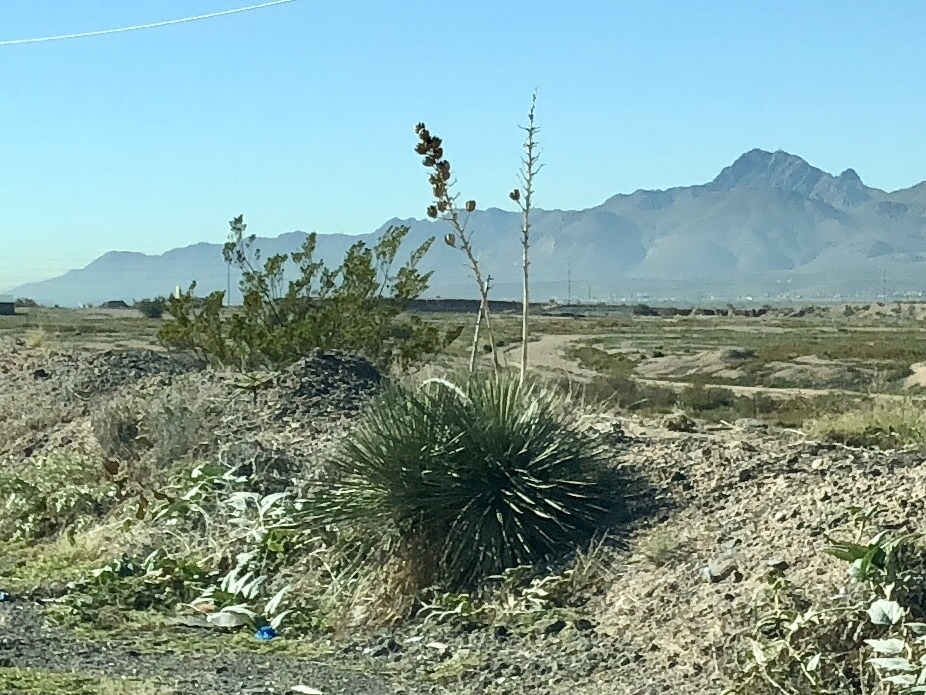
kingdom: Plantae
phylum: Tracheophyta
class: Liliopsida
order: Asparagales
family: Asparagaceae
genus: Yucca
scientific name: Yucca elata
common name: Palmella
